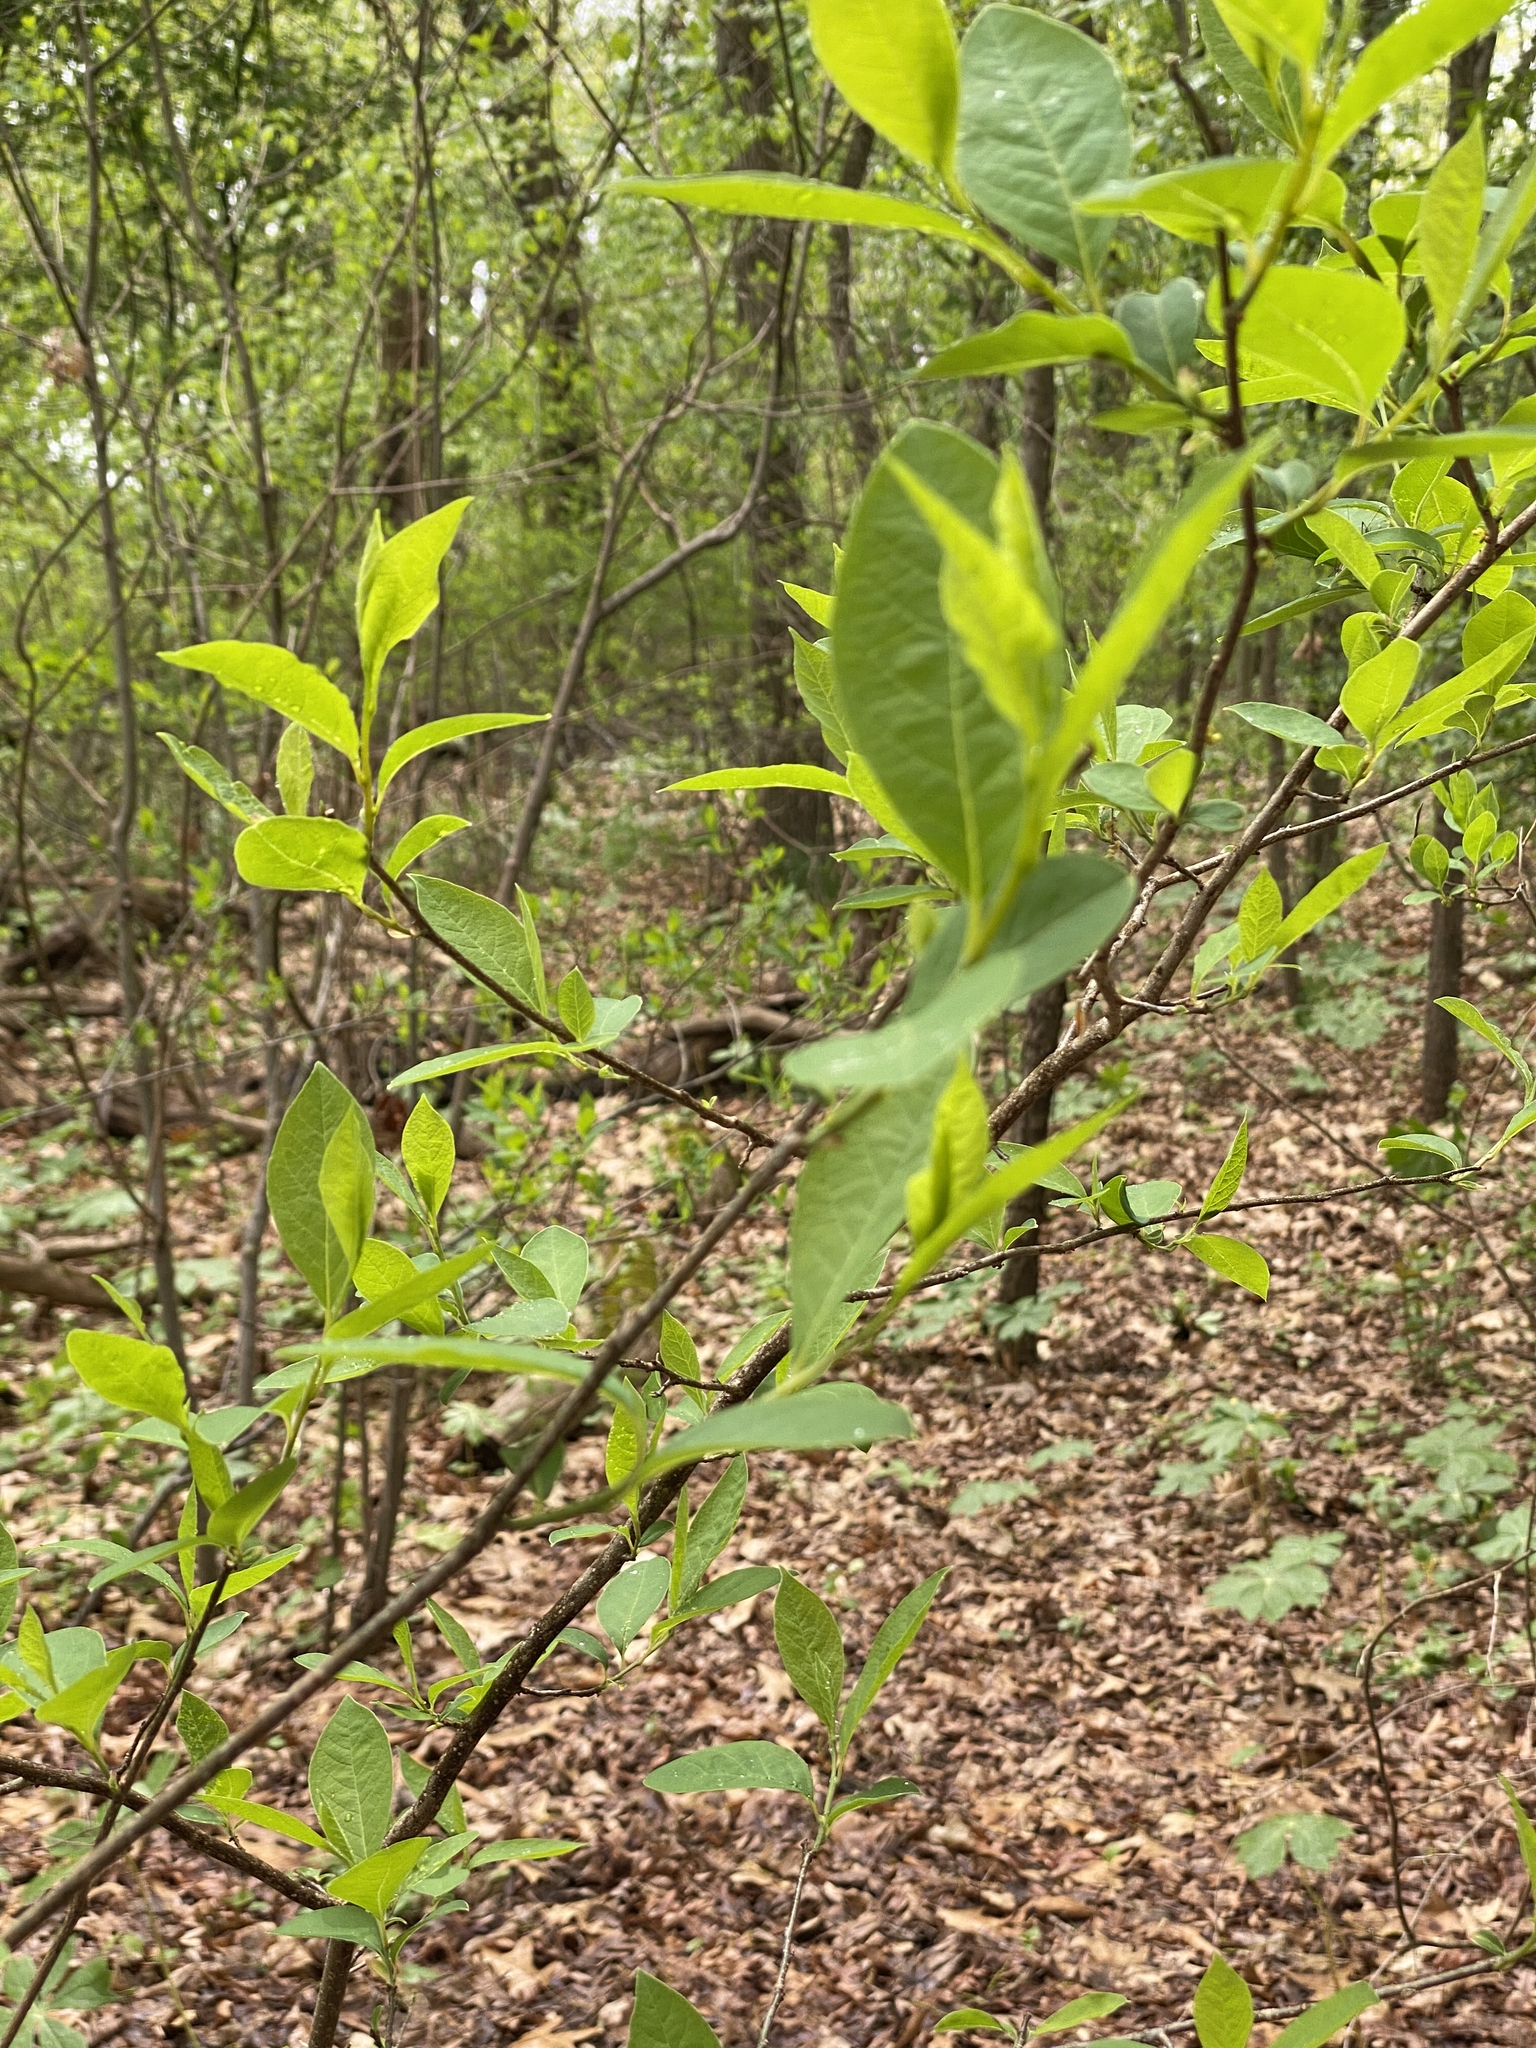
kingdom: Plantae
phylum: Tracheophyta
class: Magnoliopsida
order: Laurales
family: Lauraceae
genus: Lindera
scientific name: Lindera benzoin
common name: Spicebush
